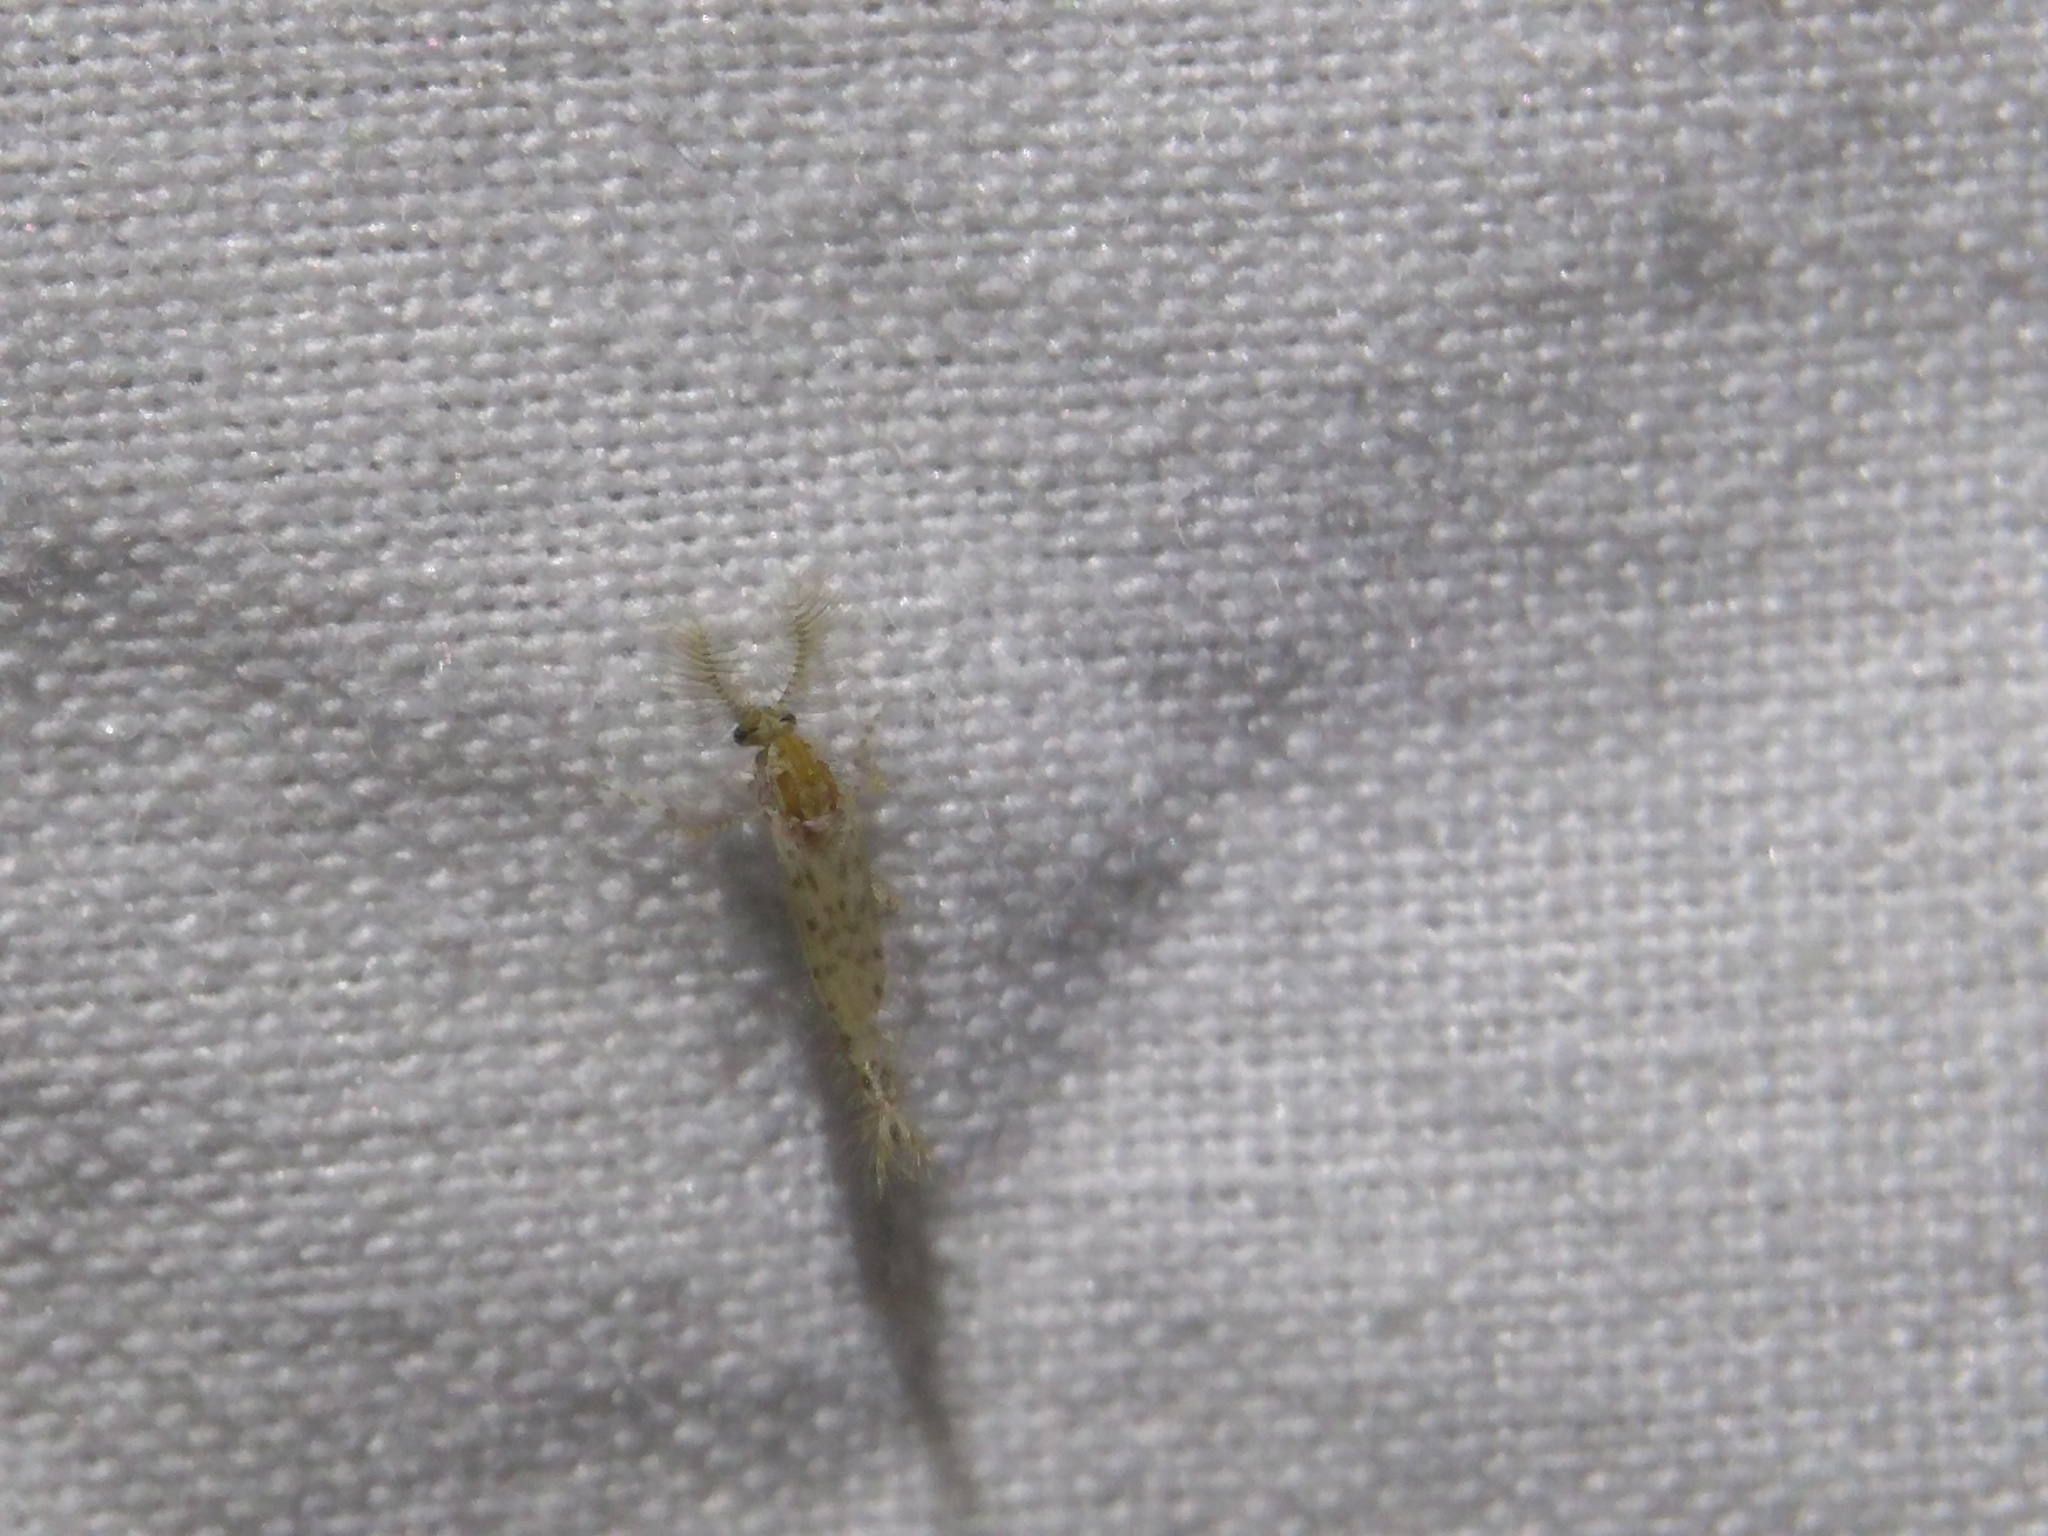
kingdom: Animalia
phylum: Arthropoda
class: Insecta
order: Diptera
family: Chaoboridae
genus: Chaoborus
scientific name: Chaoborus punctipennis
